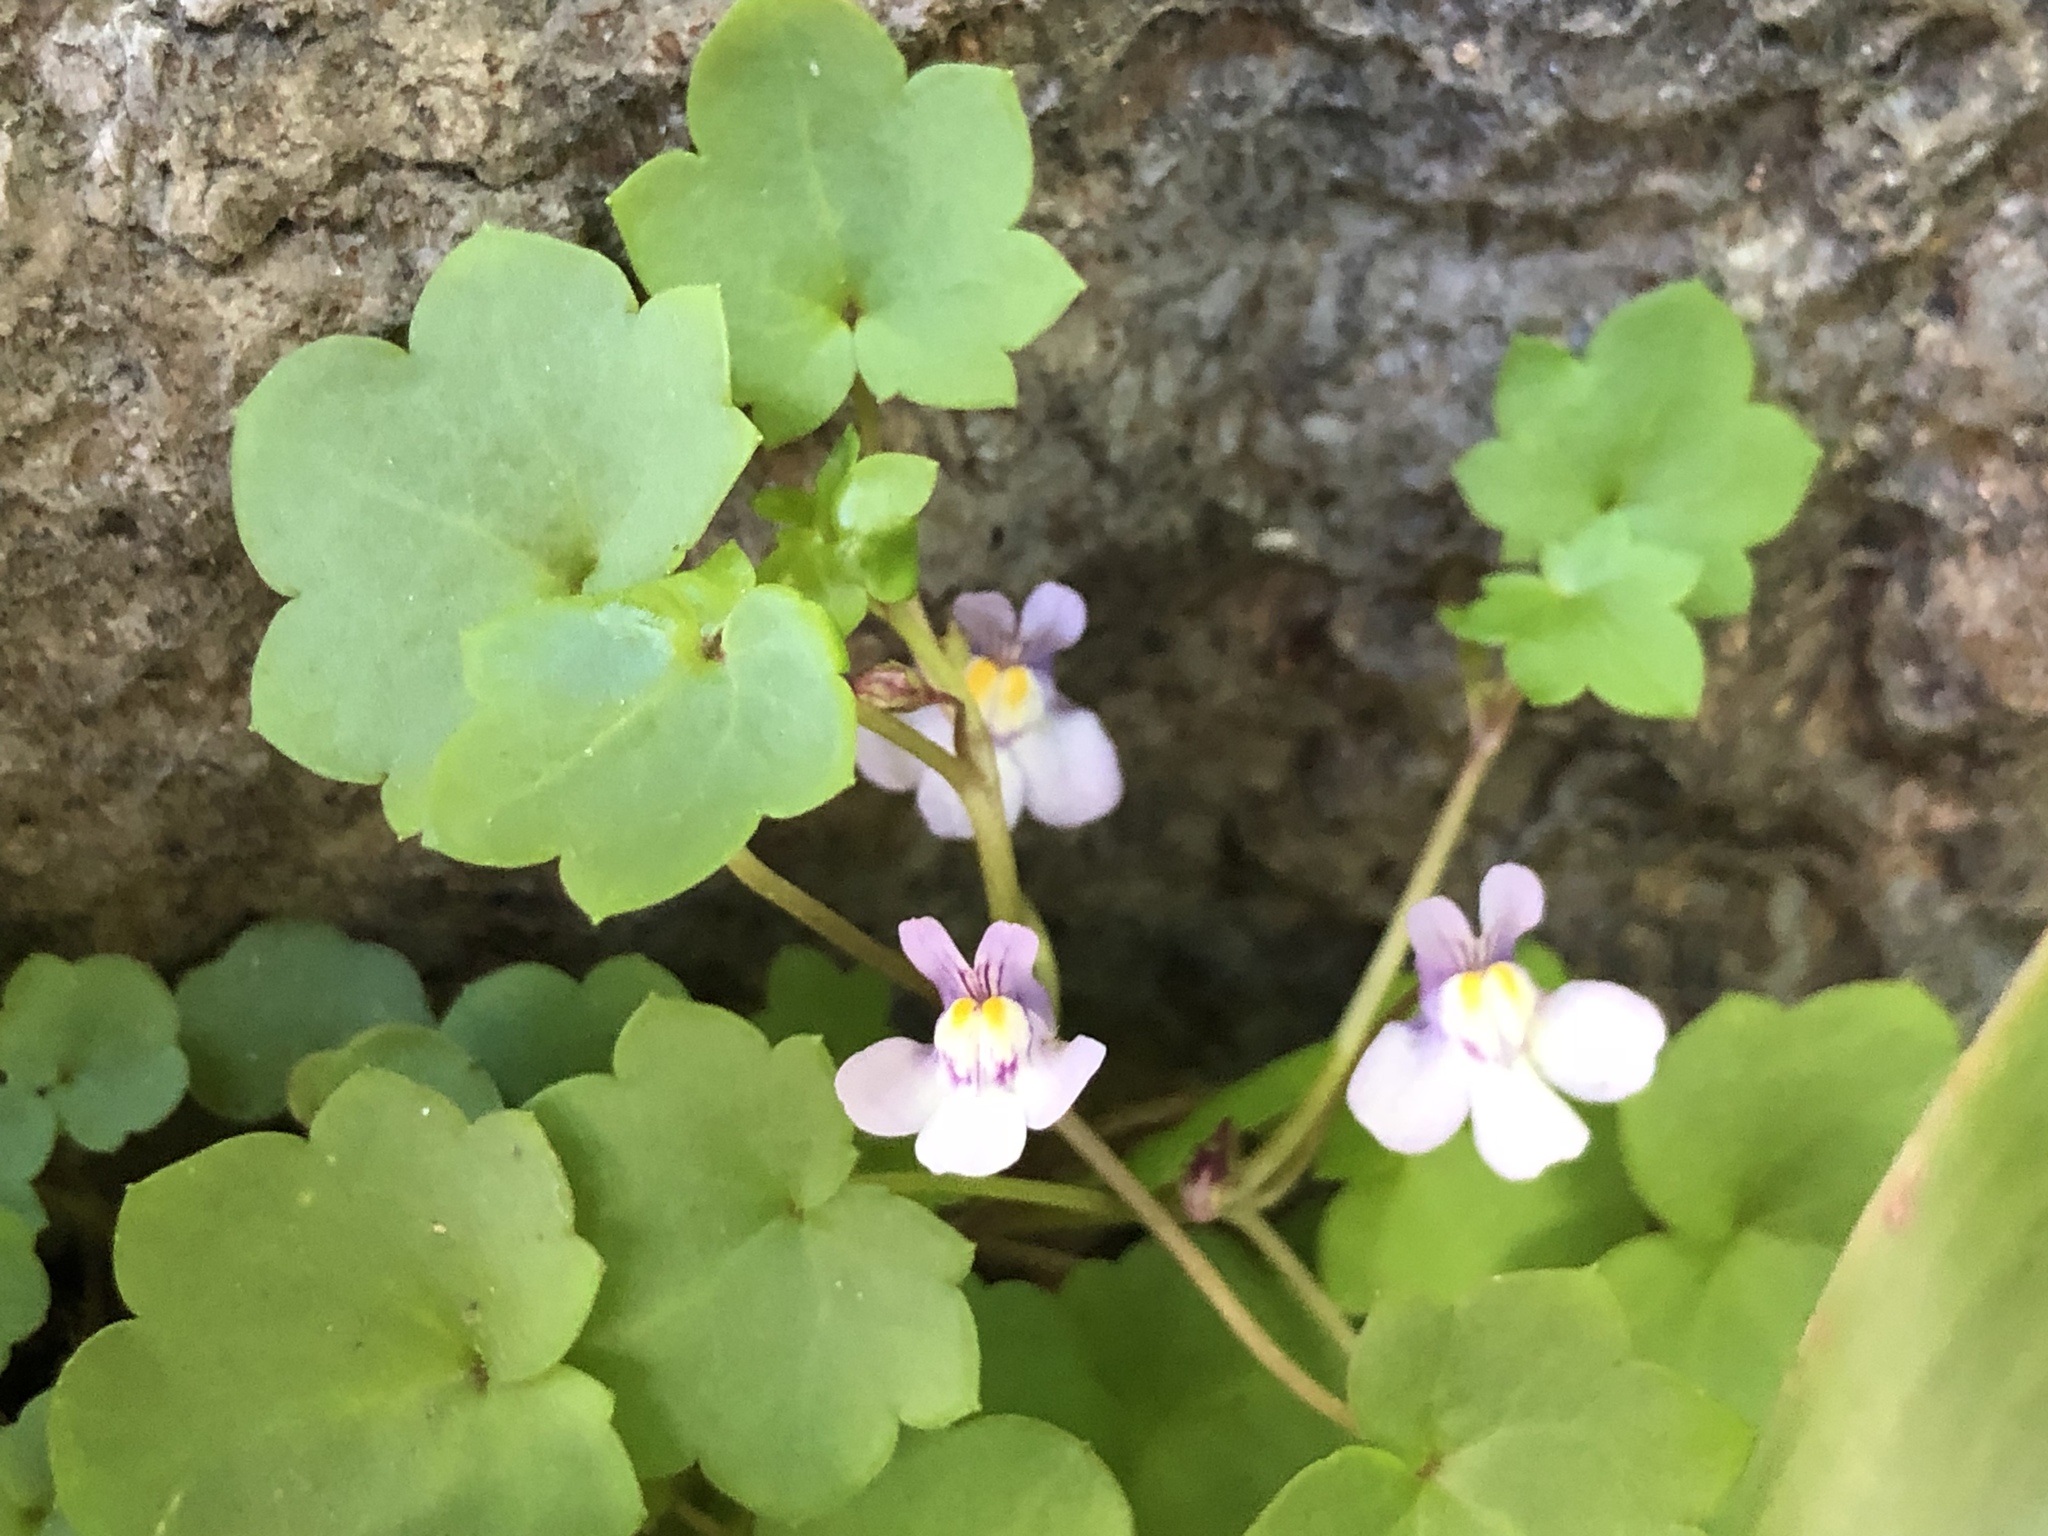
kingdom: Plantae
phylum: Tracheophyta
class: Magnoliopsida
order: Lamiales
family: Plantaginaceae
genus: Cymbalaria
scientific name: Cymbalaria muralis
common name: Ivy-leaved toadflax
